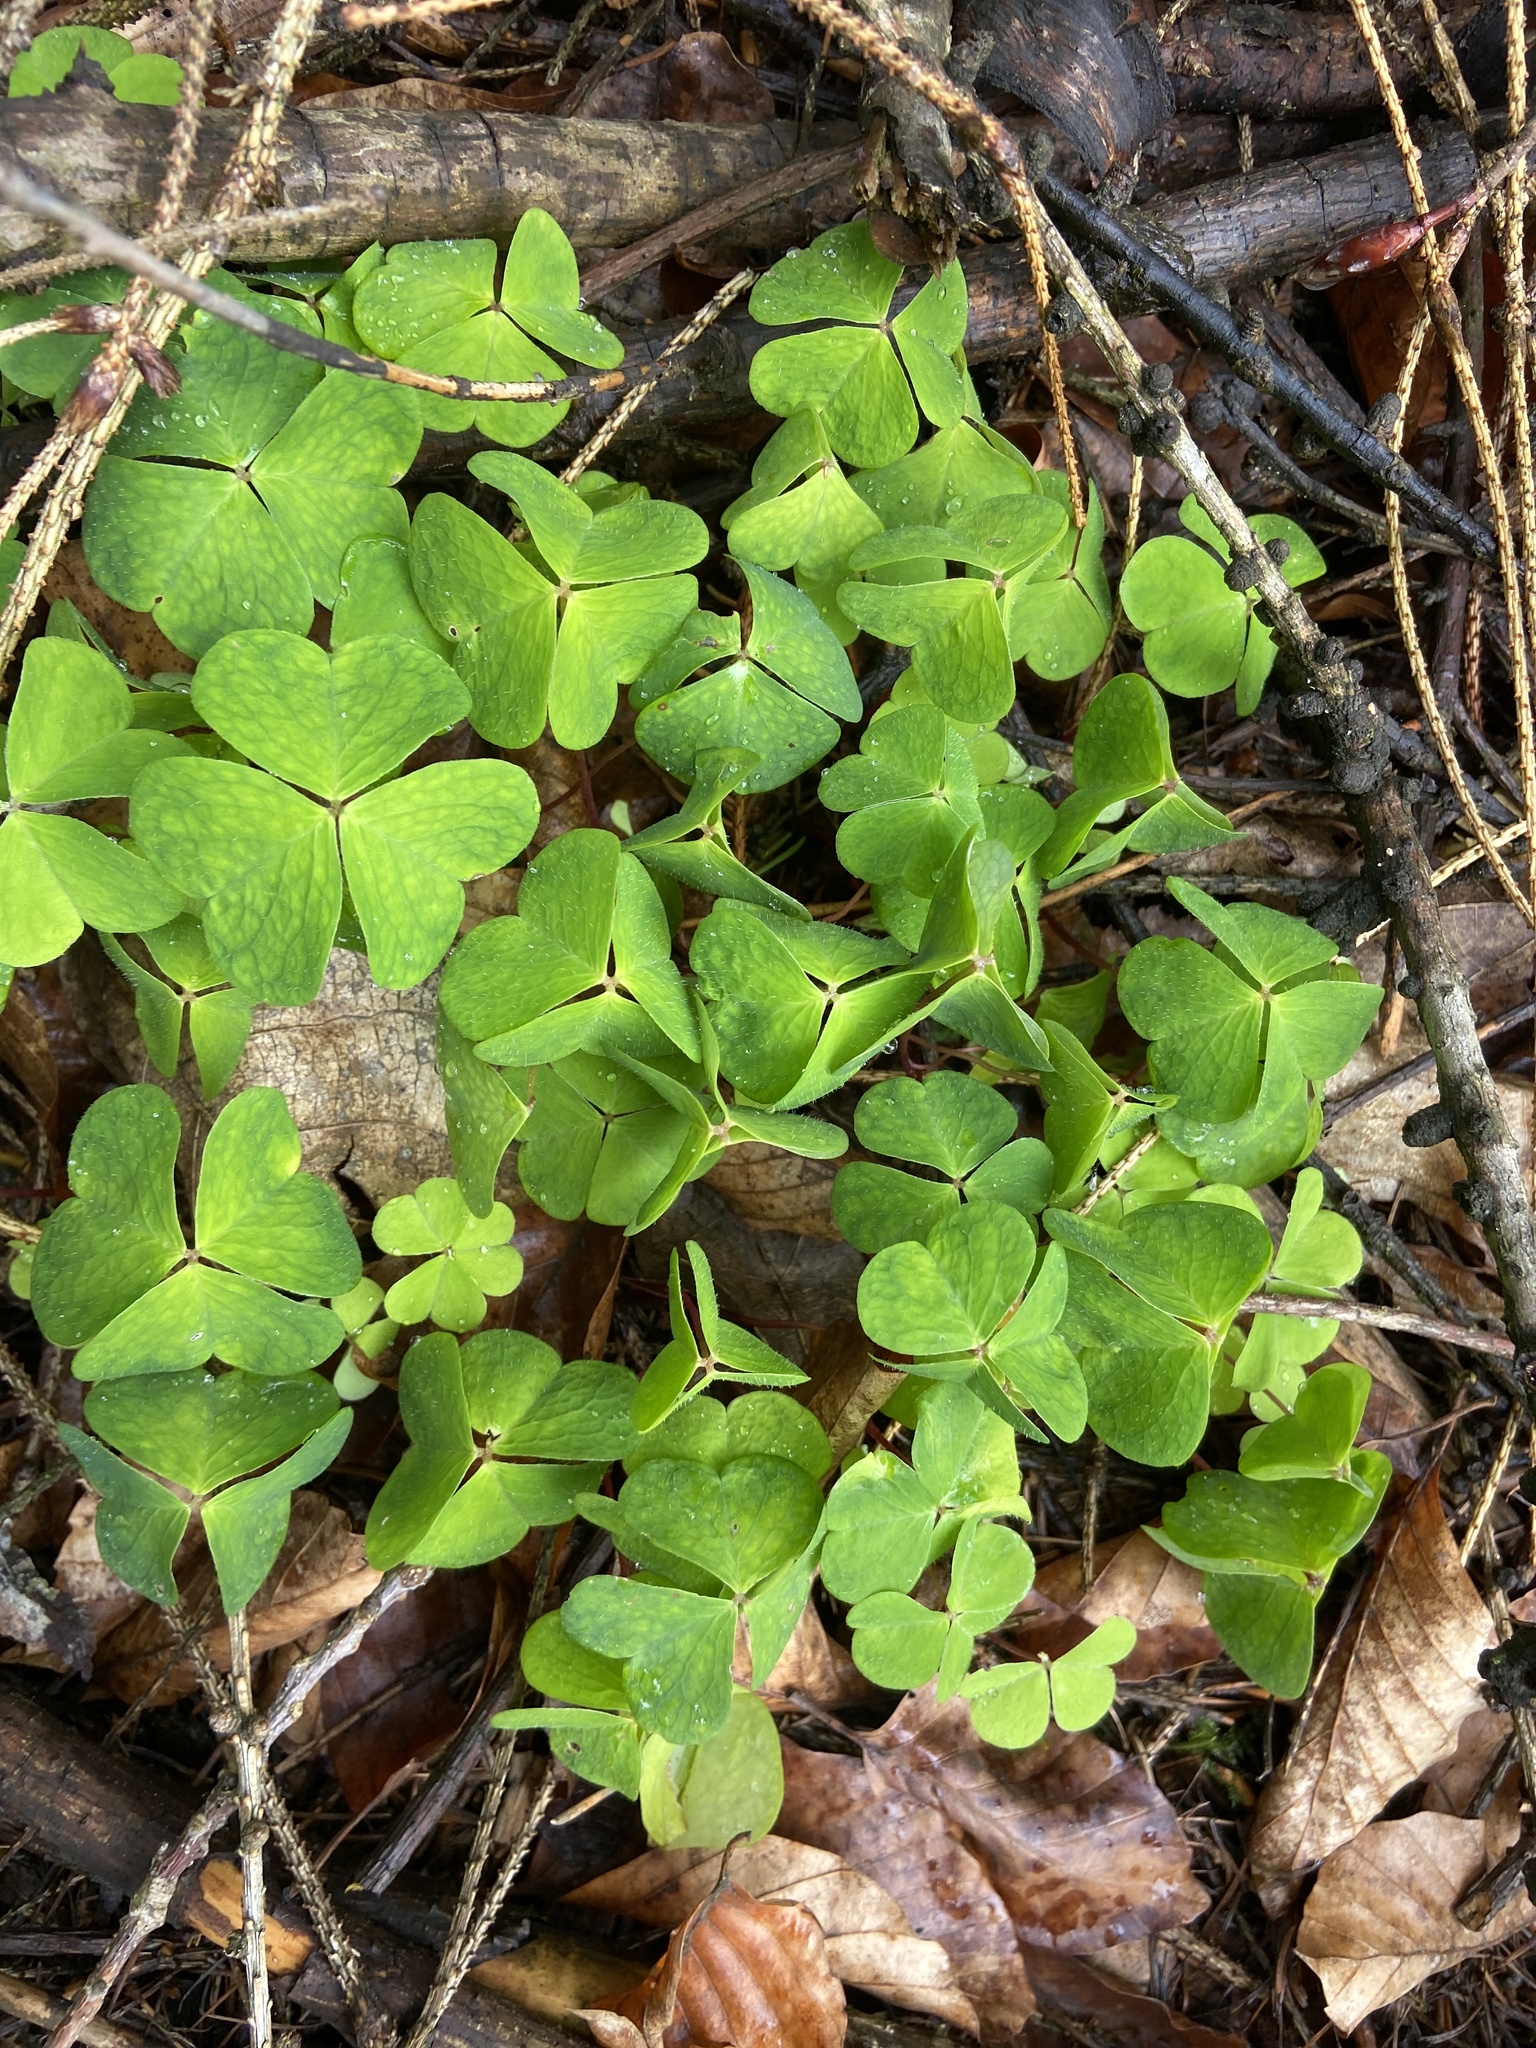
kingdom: Plantae
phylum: Tracheophyta
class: Magnoliopsida
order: Oxalidales
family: Oxalidaceae
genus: Oxalis
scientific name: Oxalis acetosella
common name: Wood-sorrel
